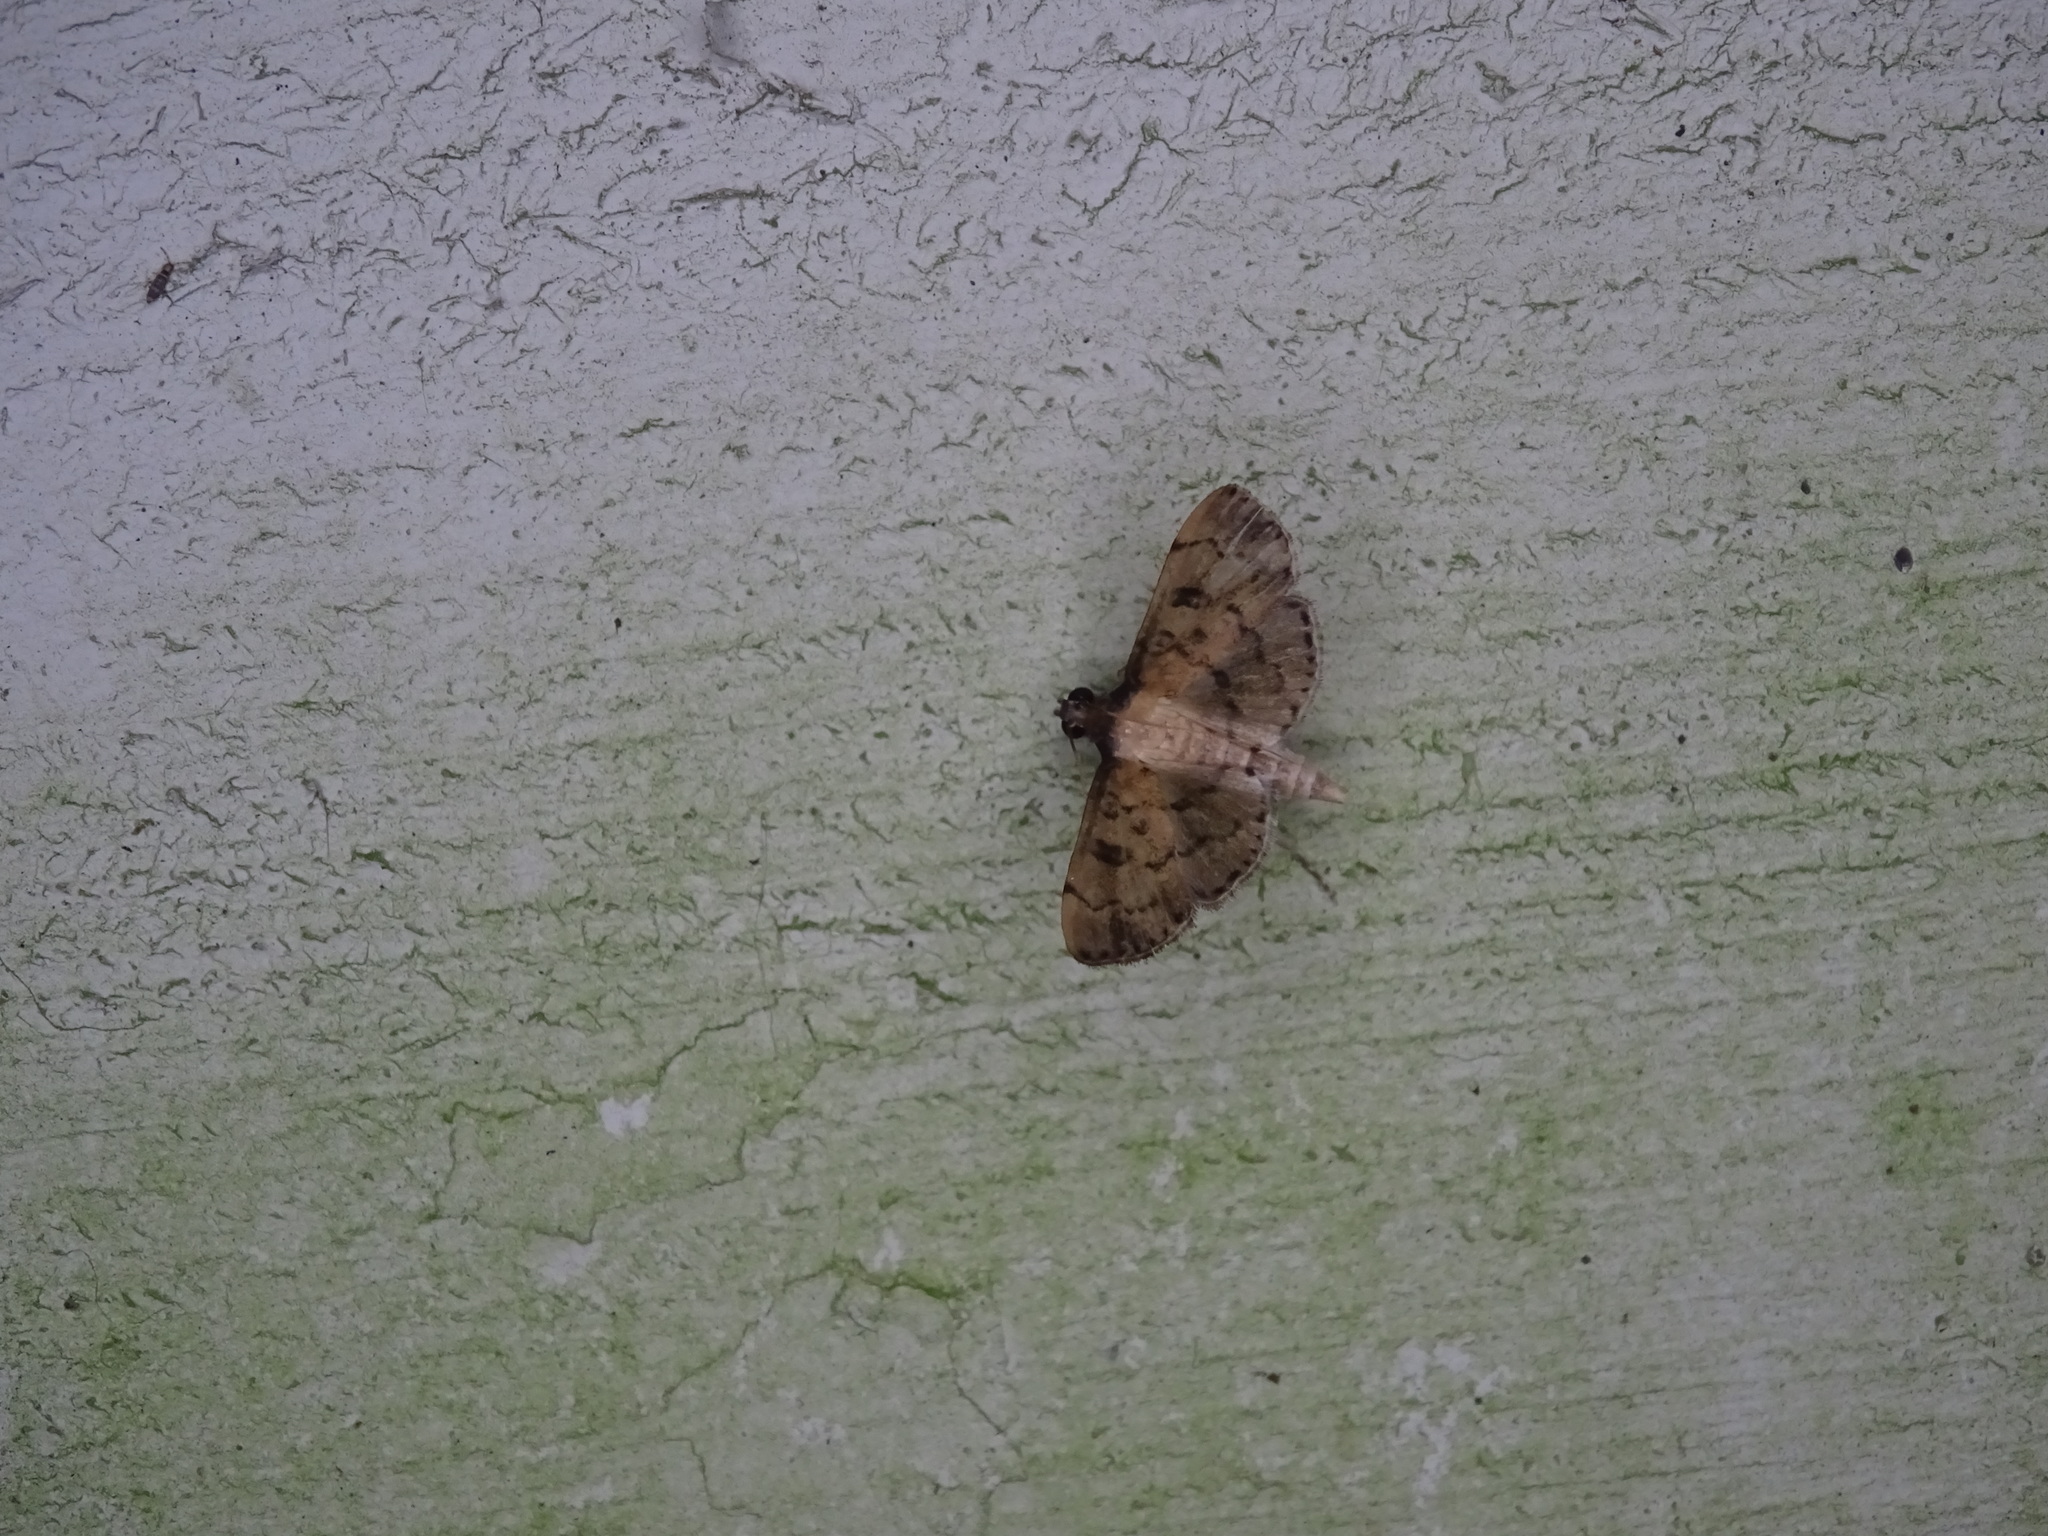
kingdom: Animalia
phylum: Arthropoda
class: Insecta
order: Lepidoptera
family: Crambidae
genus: Nacoleia
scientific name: Nacoleia charesalis
